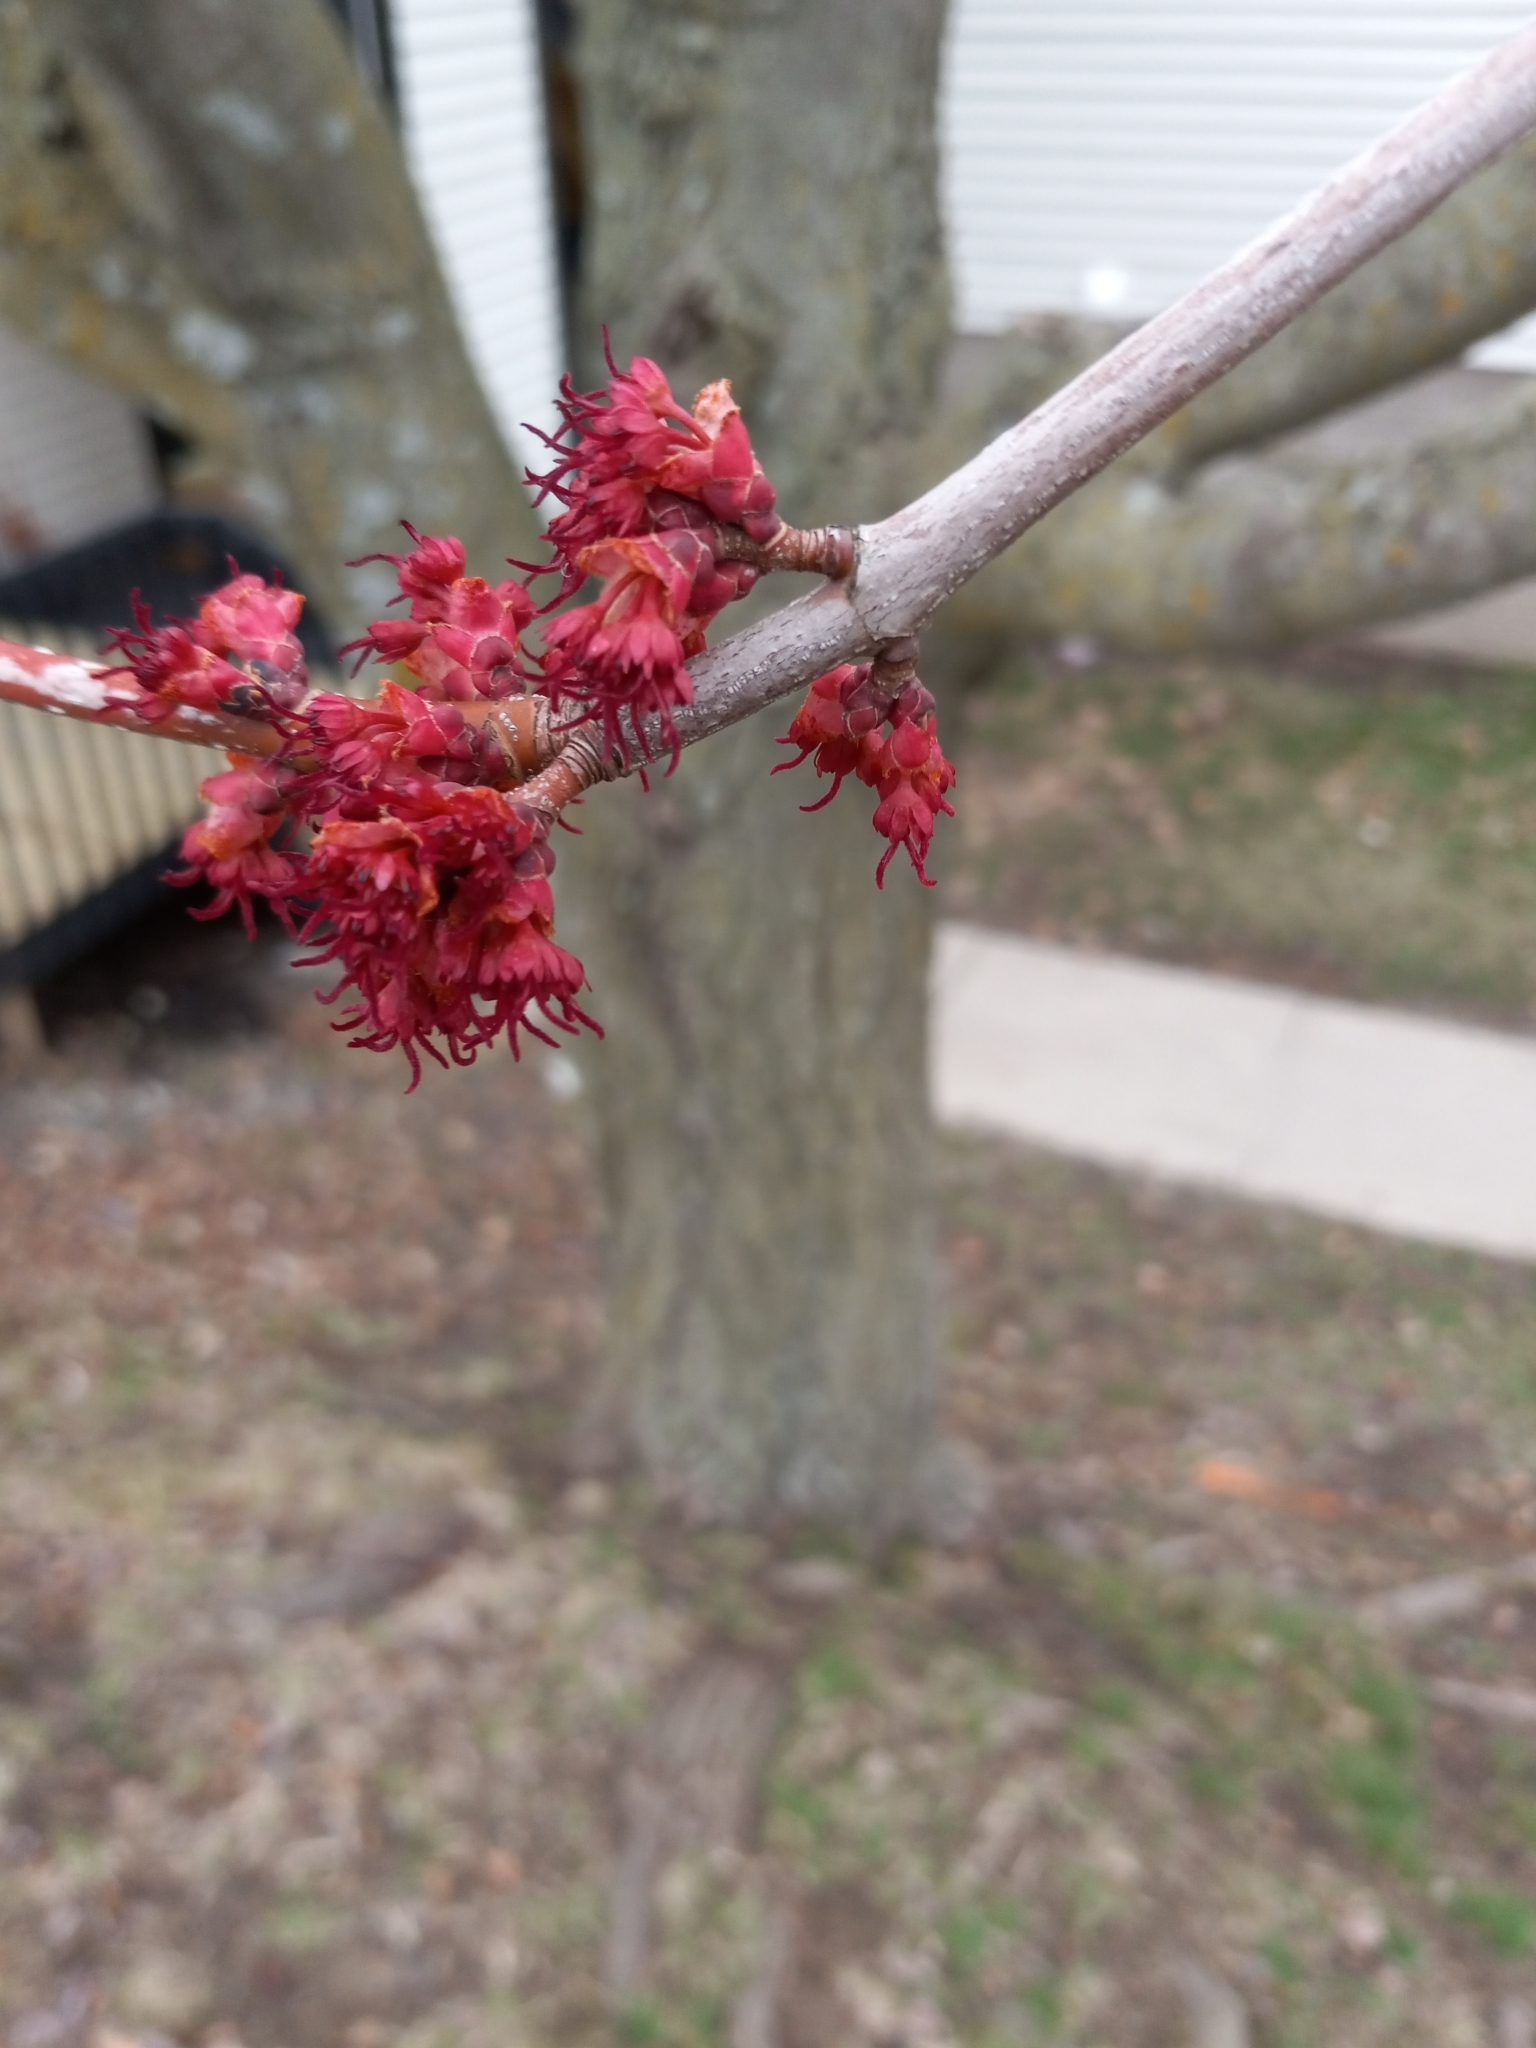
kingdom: Plantae
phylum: Tracheophyta
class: Magnoliopsida
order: Sapindales
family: Sapindaceae
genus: Acer
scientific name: Acer rubrum
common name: Red maple
